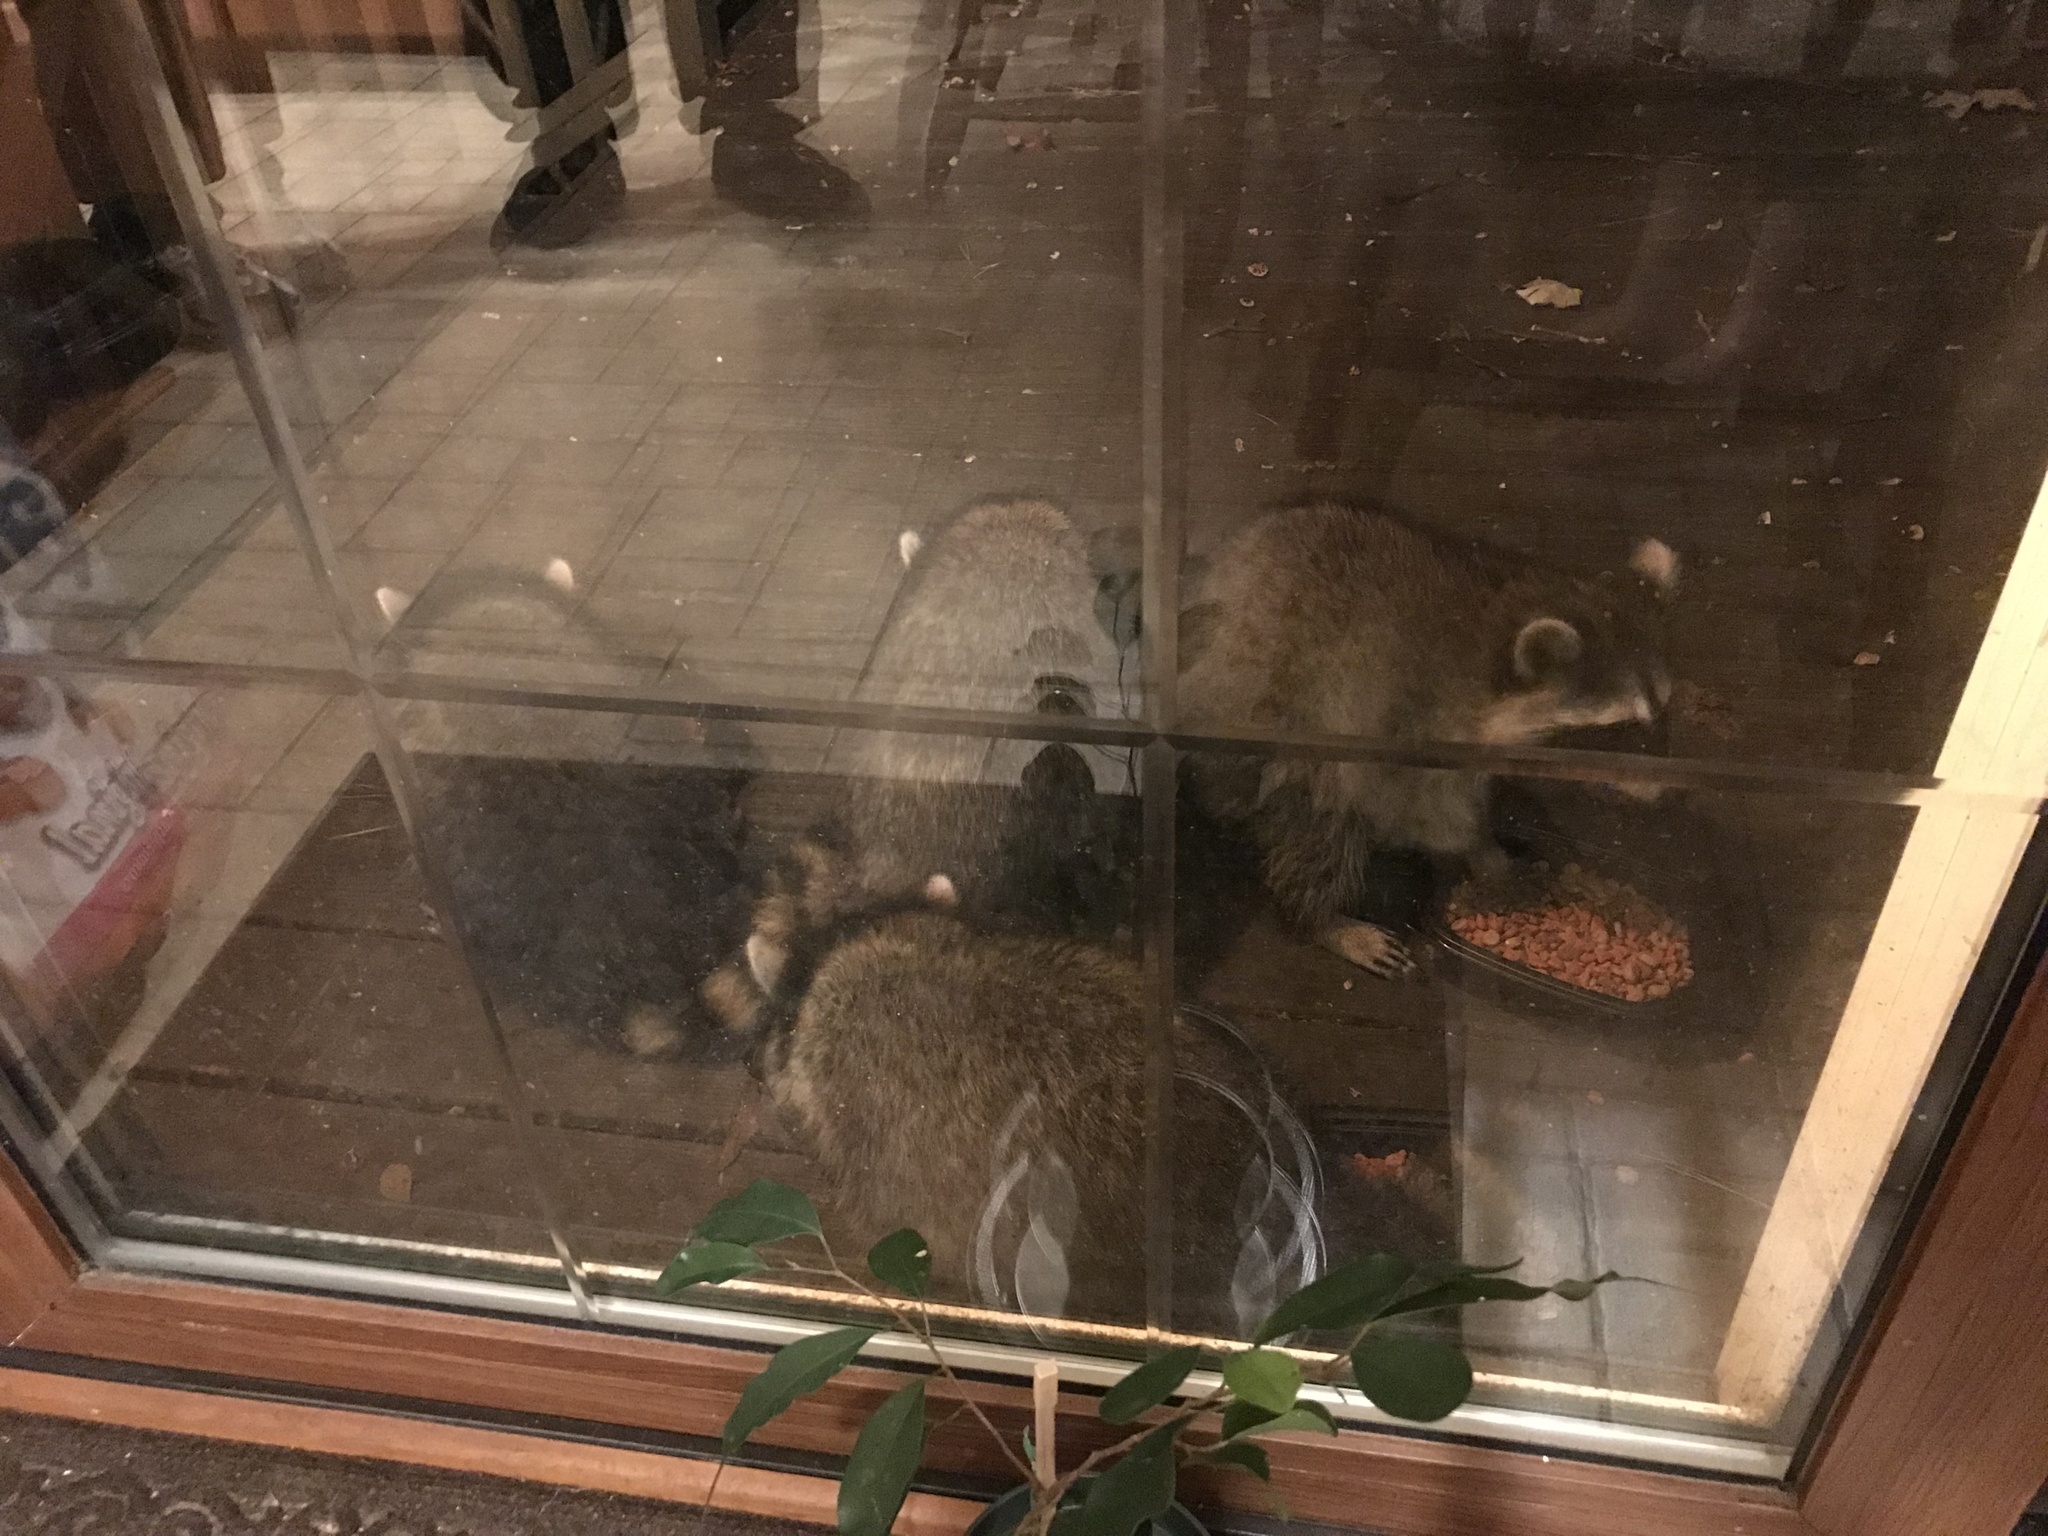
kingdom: Animalia
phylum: Chordata
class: Mammalia
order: Carnivora
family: Procyonidae
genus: Procyon
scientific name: Procyon lotor
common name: Raccoon
